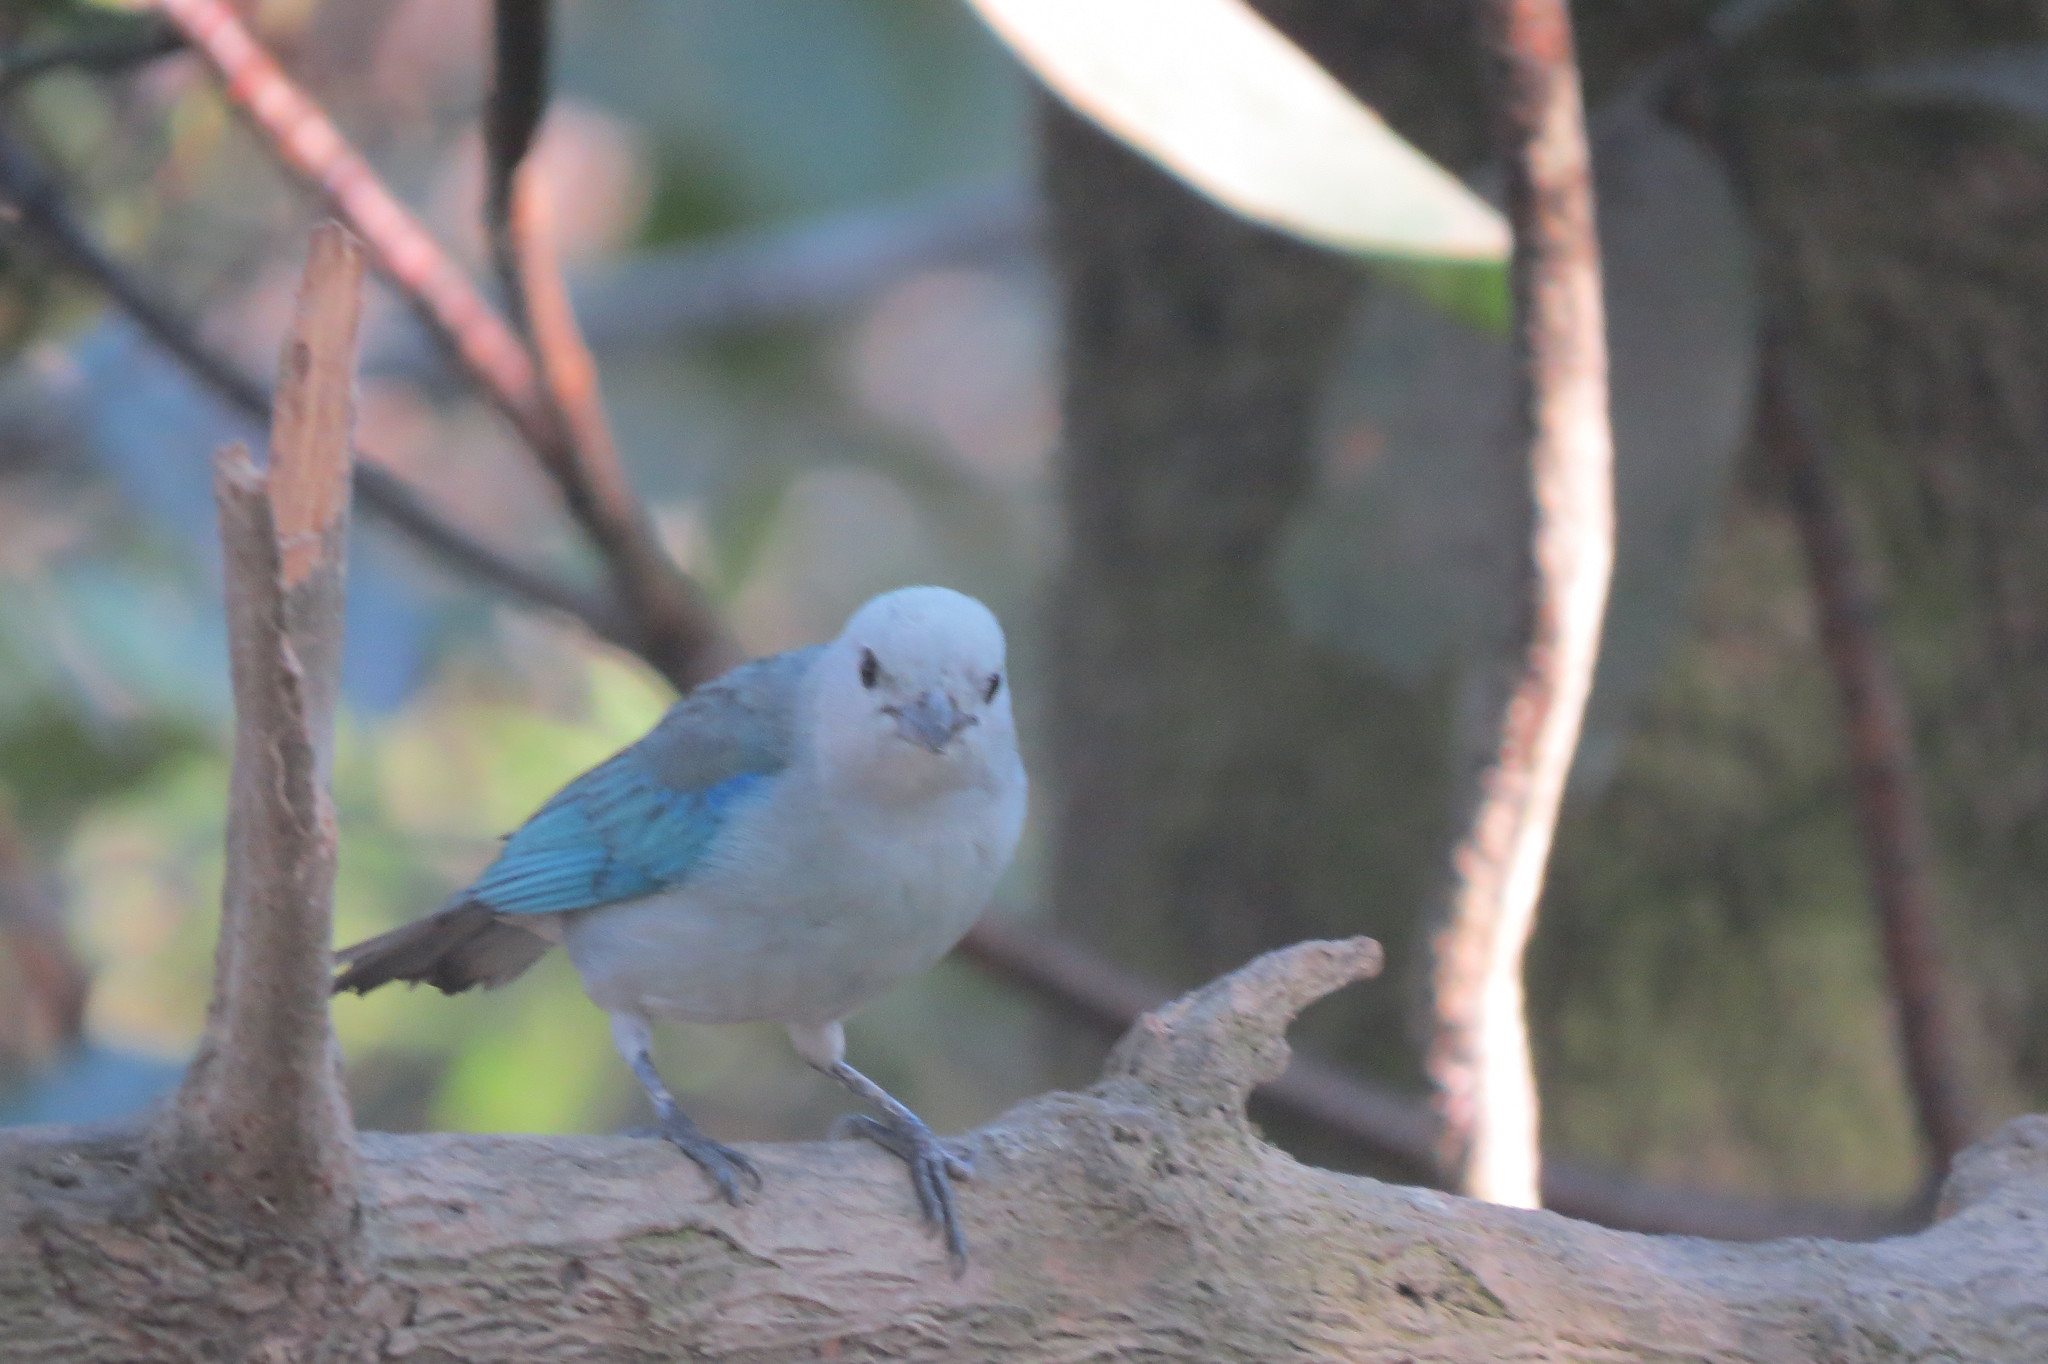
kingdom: Animalia
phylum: Chordata
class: Aves
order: Passeriformes
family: Thraupidae
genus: Thraupis
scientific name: Thraupis episcopus
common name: Blue-grey tanager
